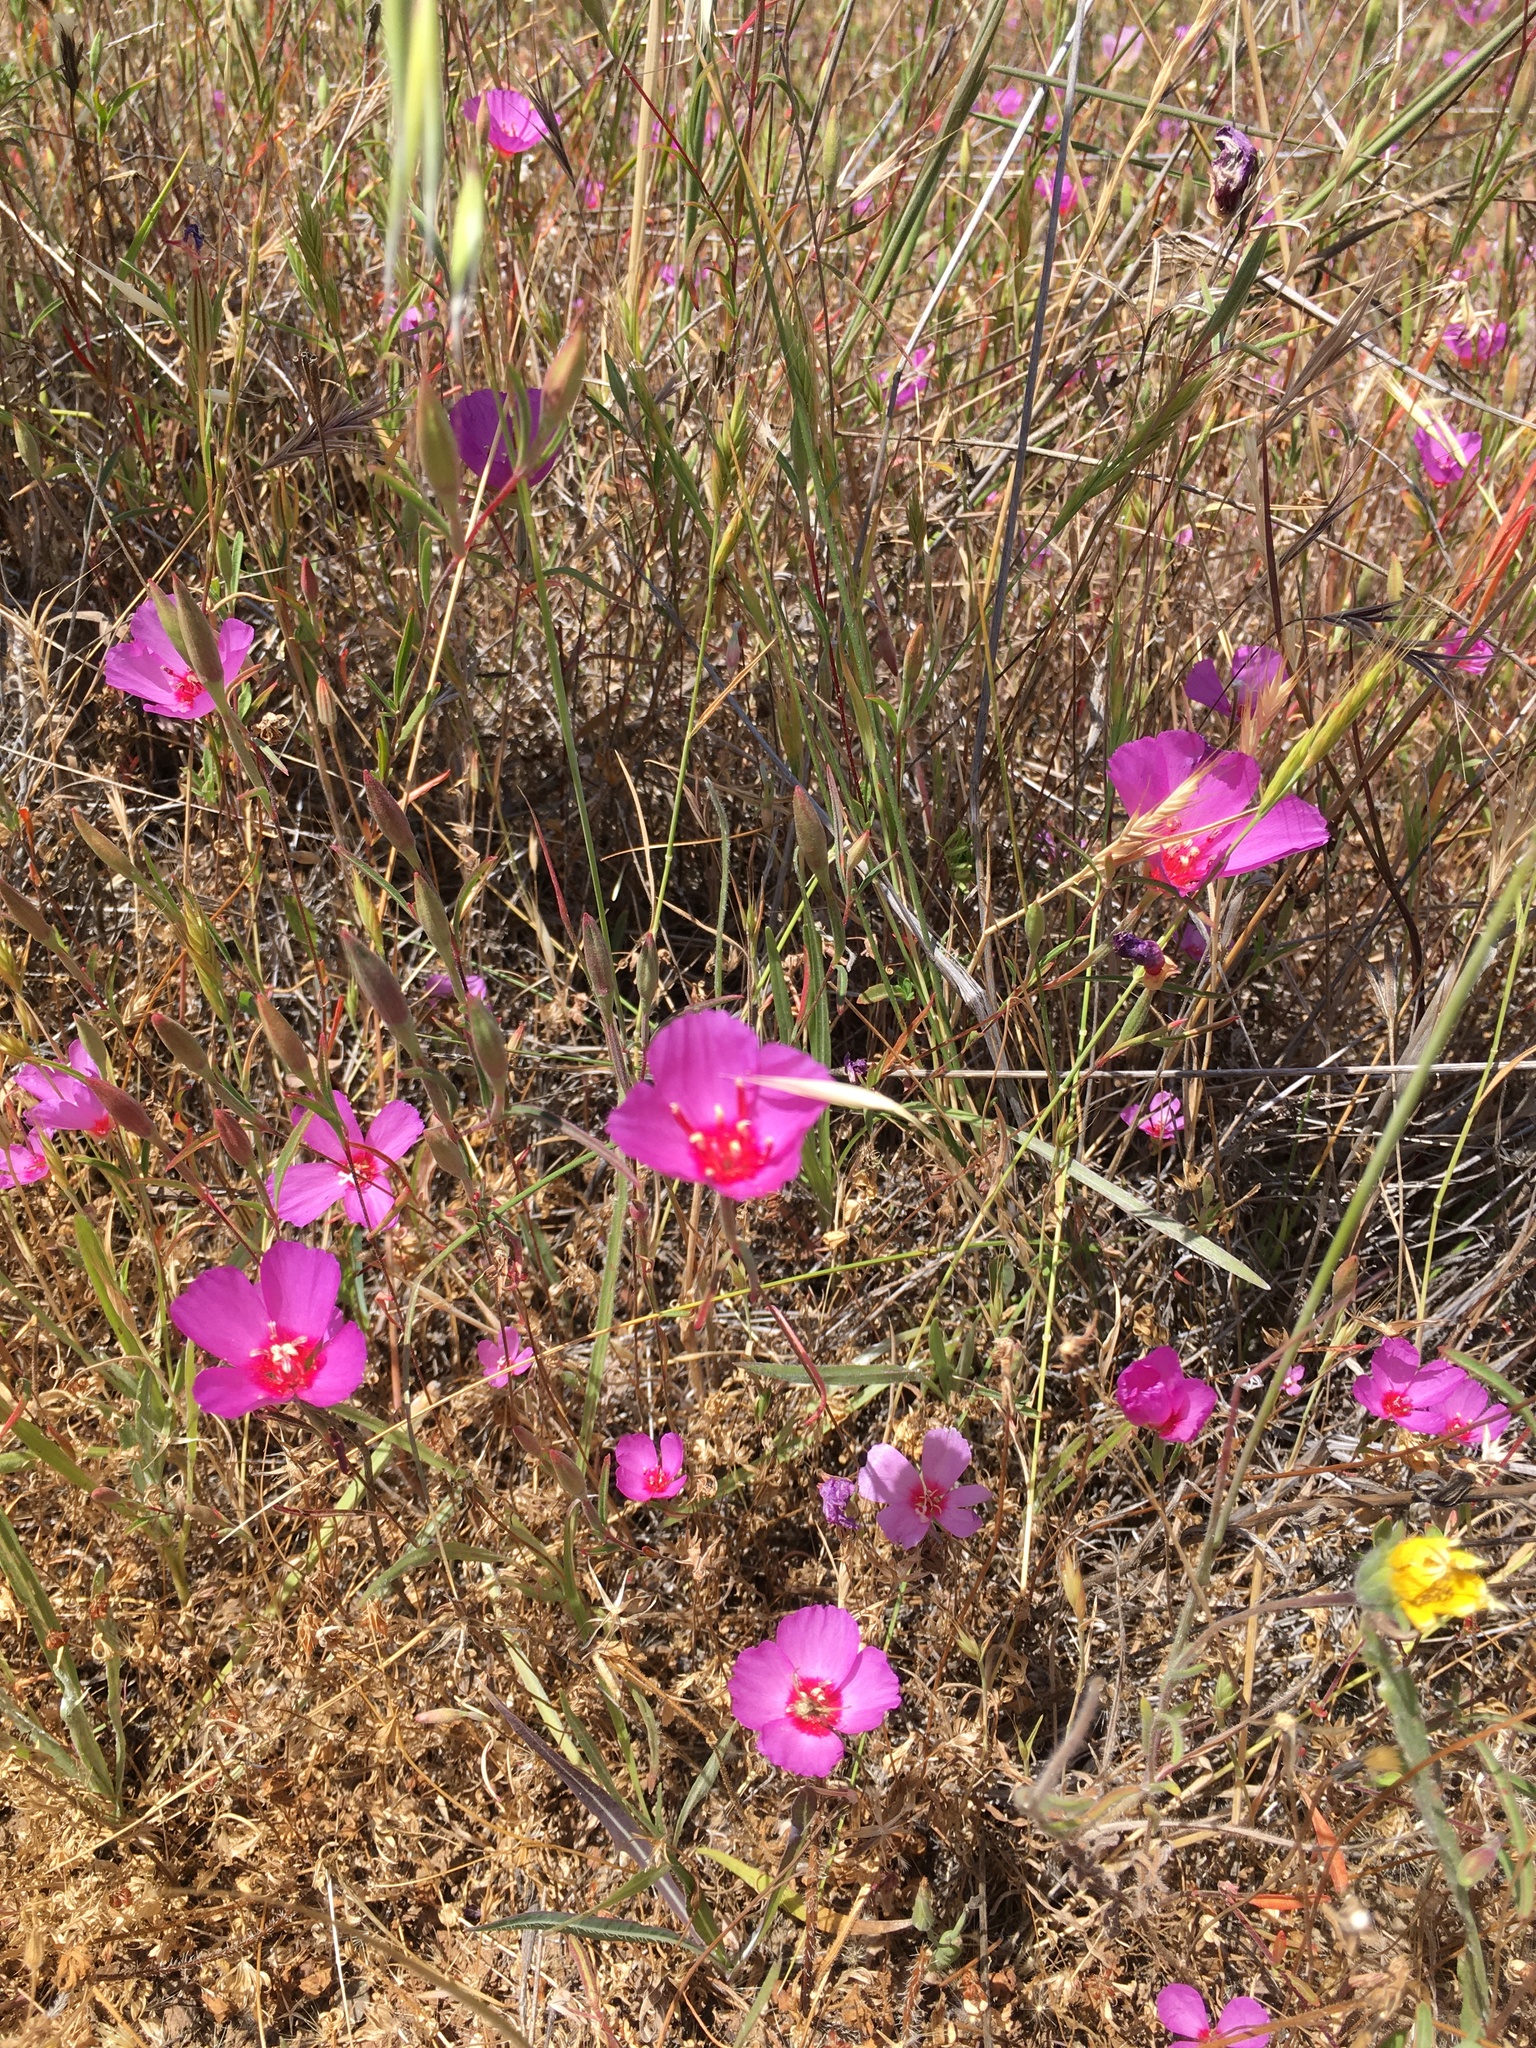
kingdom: Plantae
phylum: Tracheophyta
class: Magnoliopsida
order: Myrtales
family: Onagraceae
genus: Clarkia
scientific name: Clarkia rubicunda
